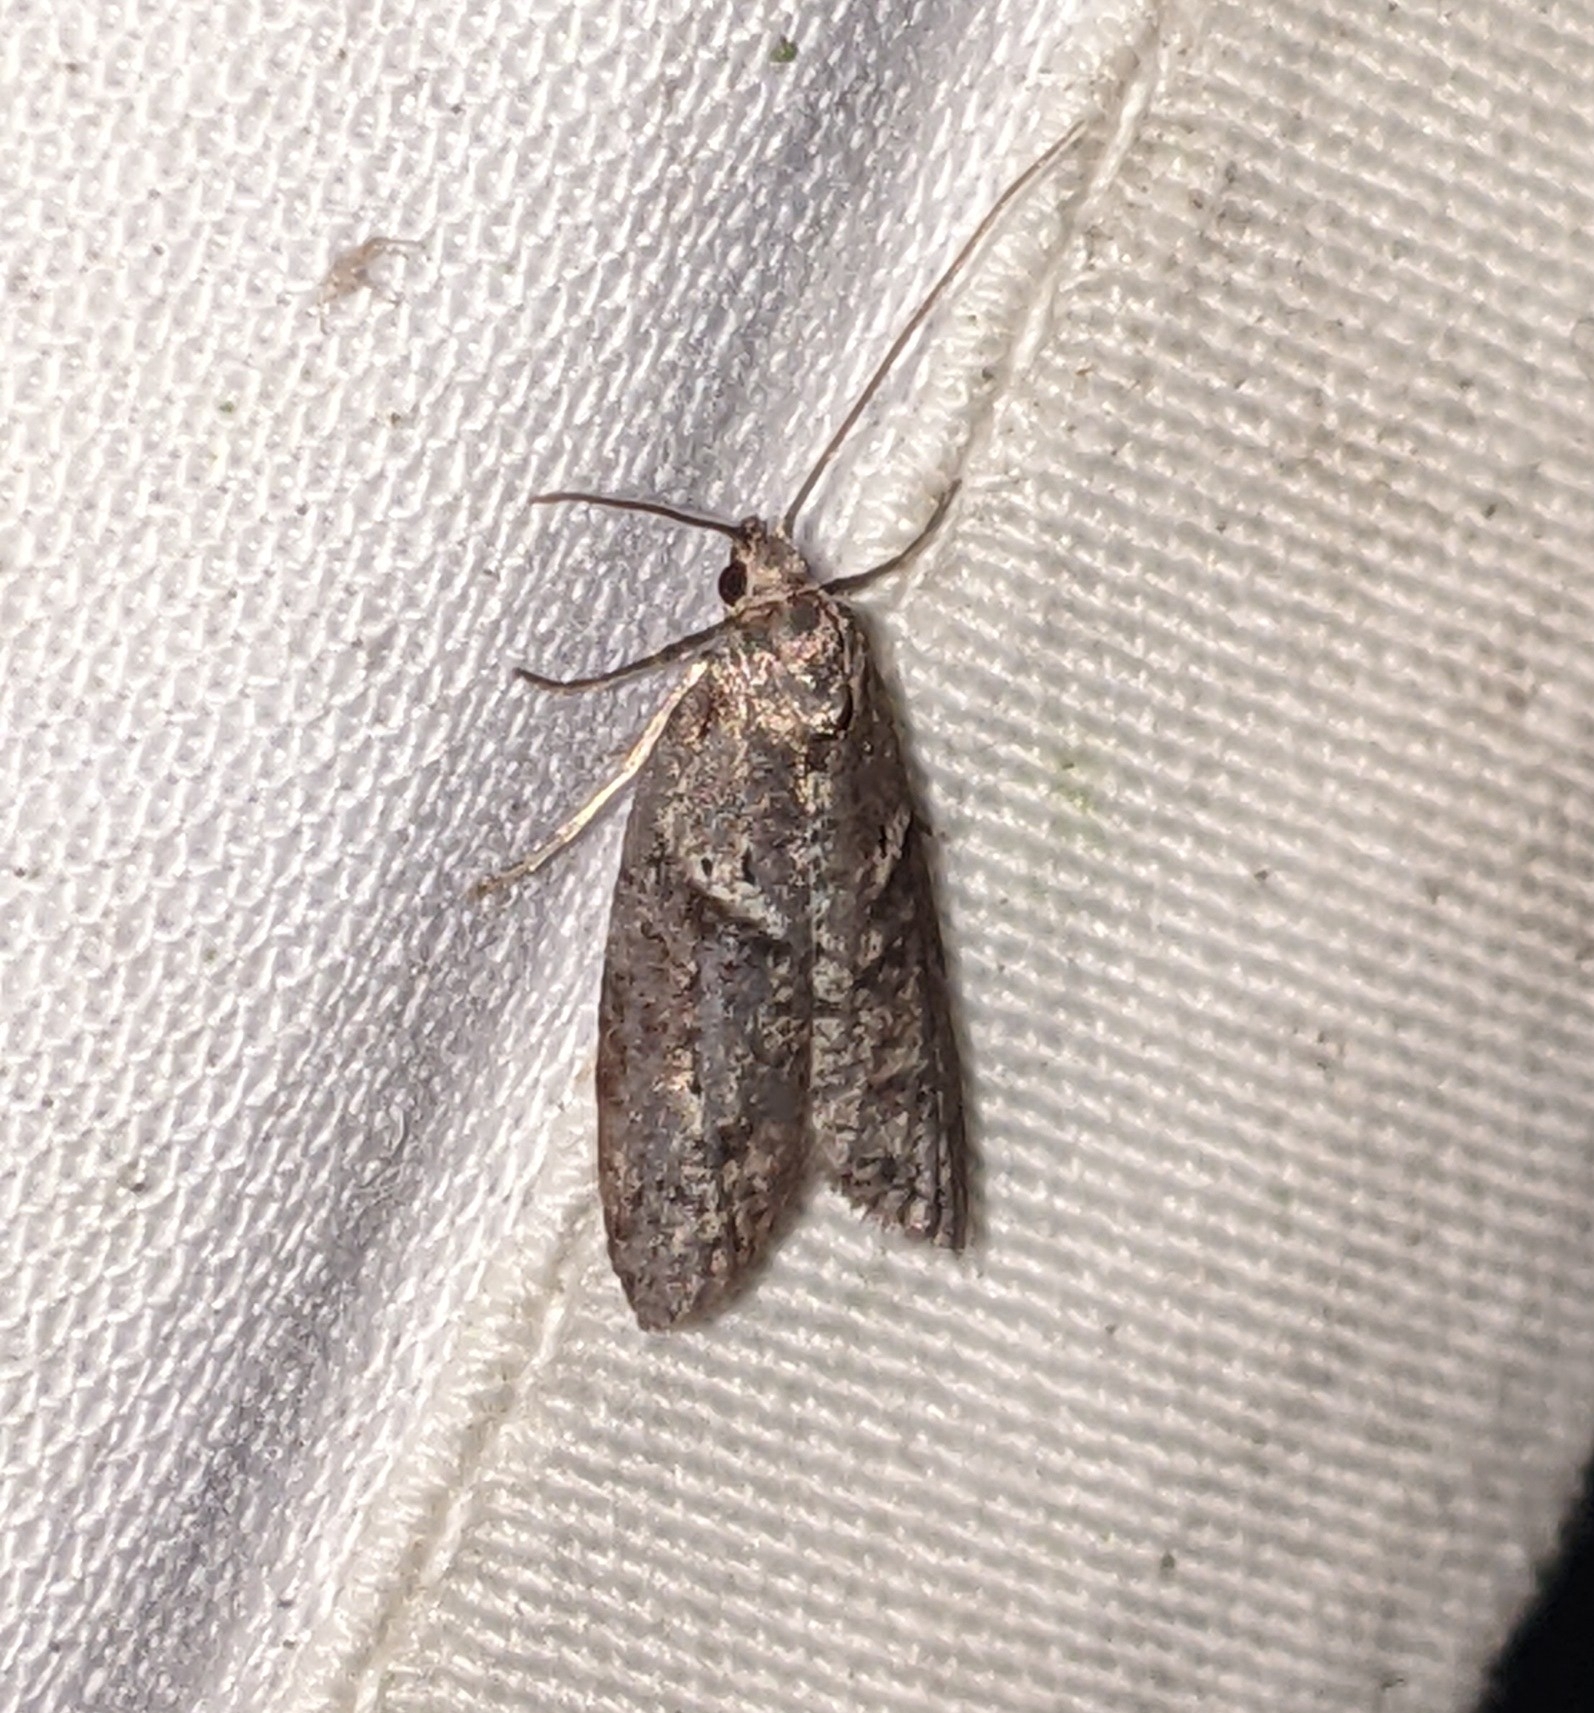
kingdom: Animalia
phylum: Arthropoda
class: Insecta
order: Lepidoptera
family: Copromorphidae
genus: Lotisma
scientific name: Lotisma trigonana
